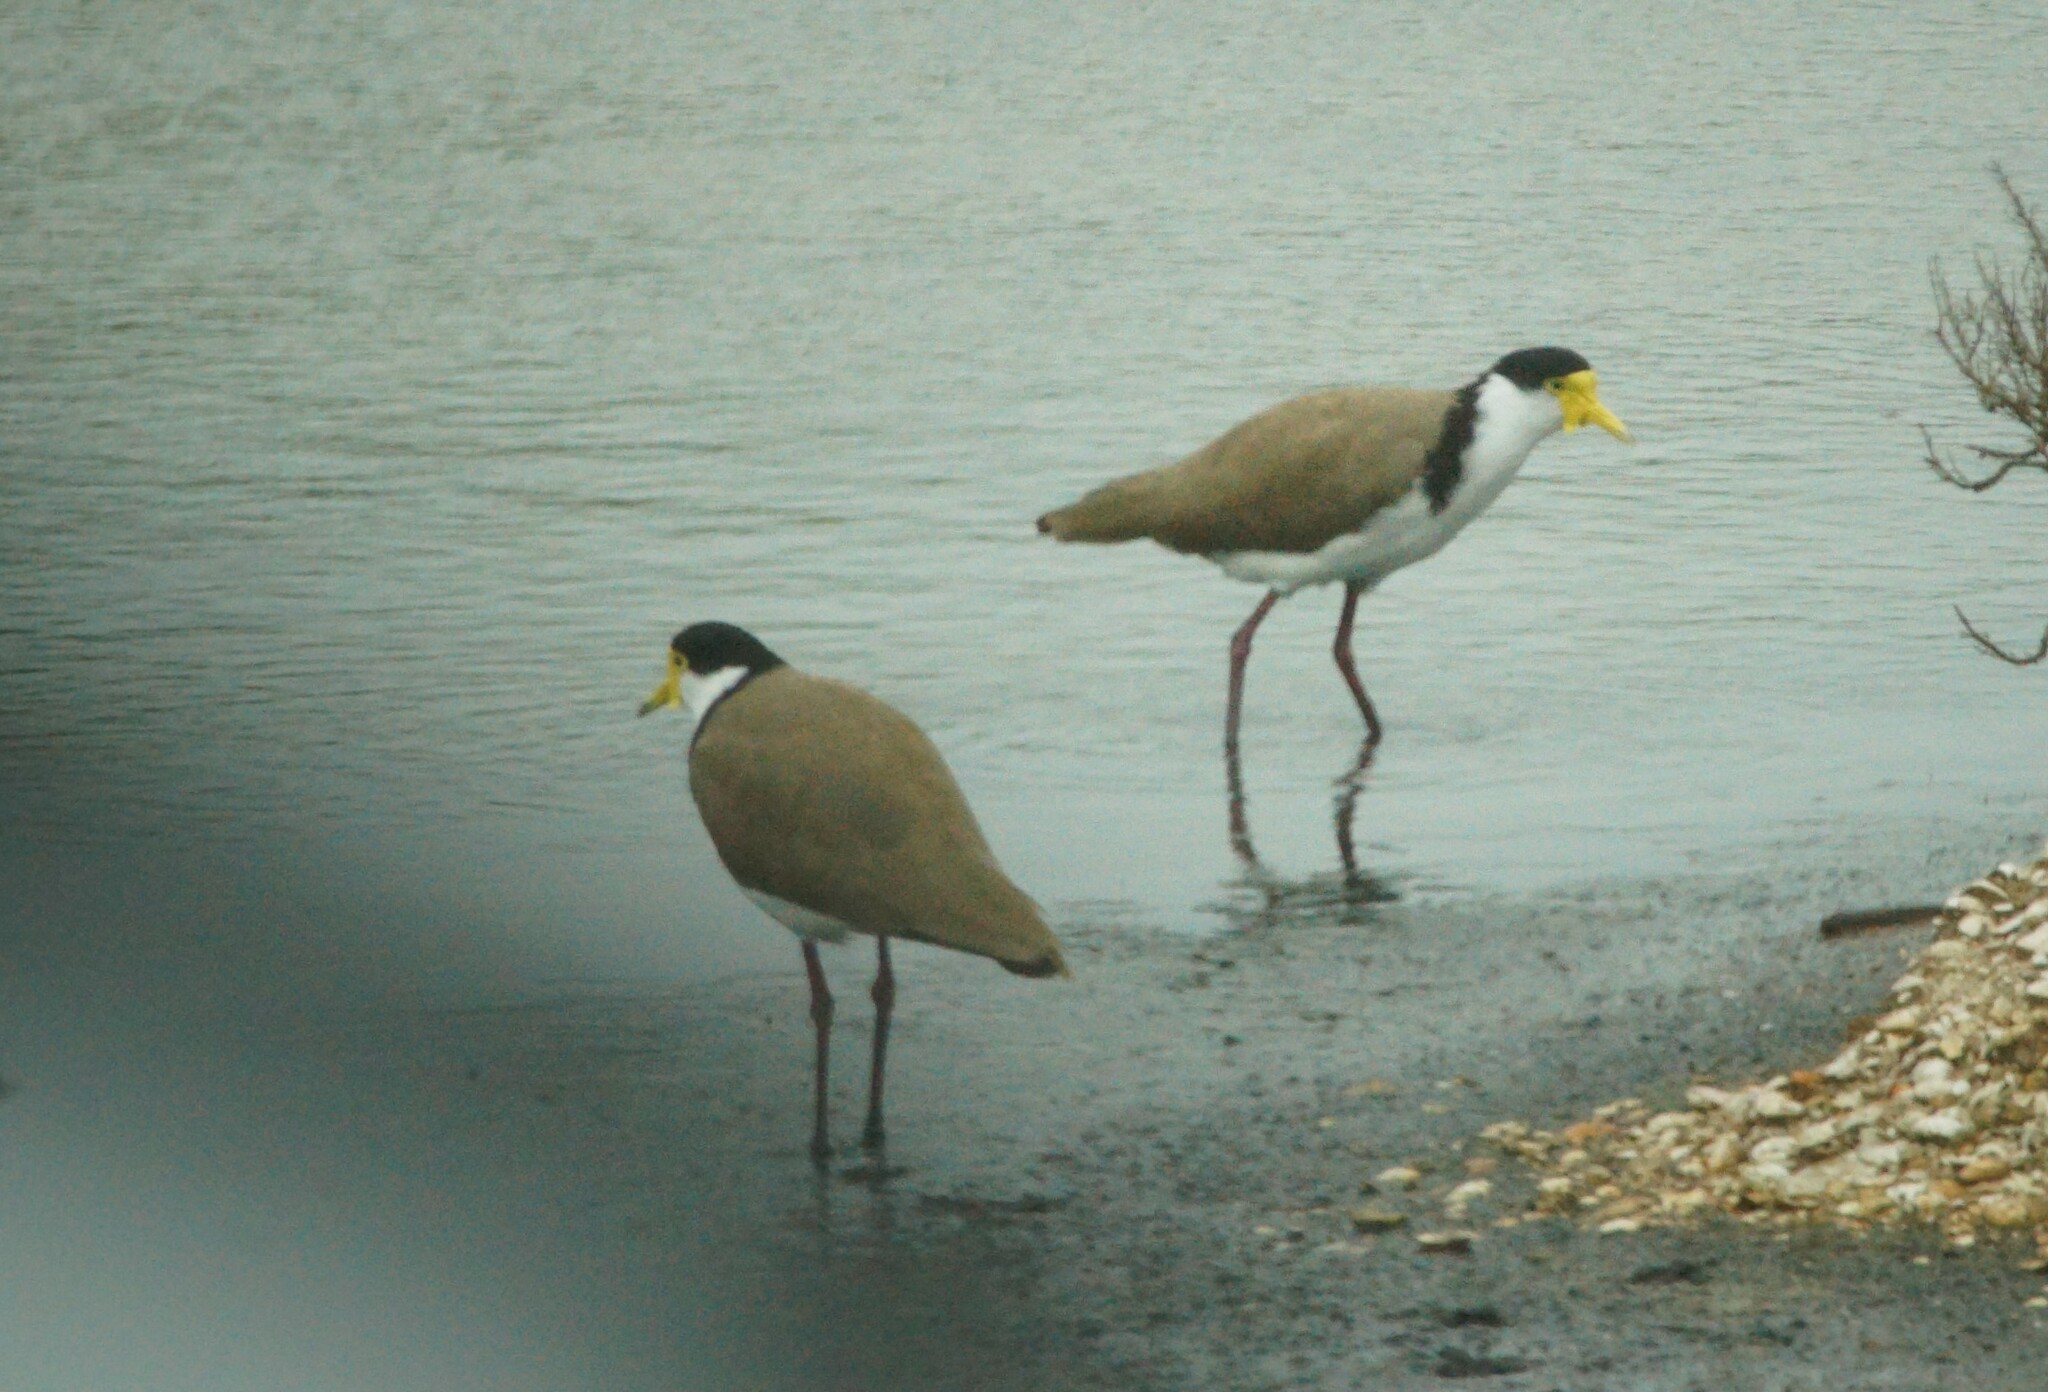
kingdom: Animalia
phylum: Chordata
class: Aves
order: Charadriiformes
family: Charadriidae
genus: Vanellus
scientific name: Vanellus miles
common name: Masked lapwing
